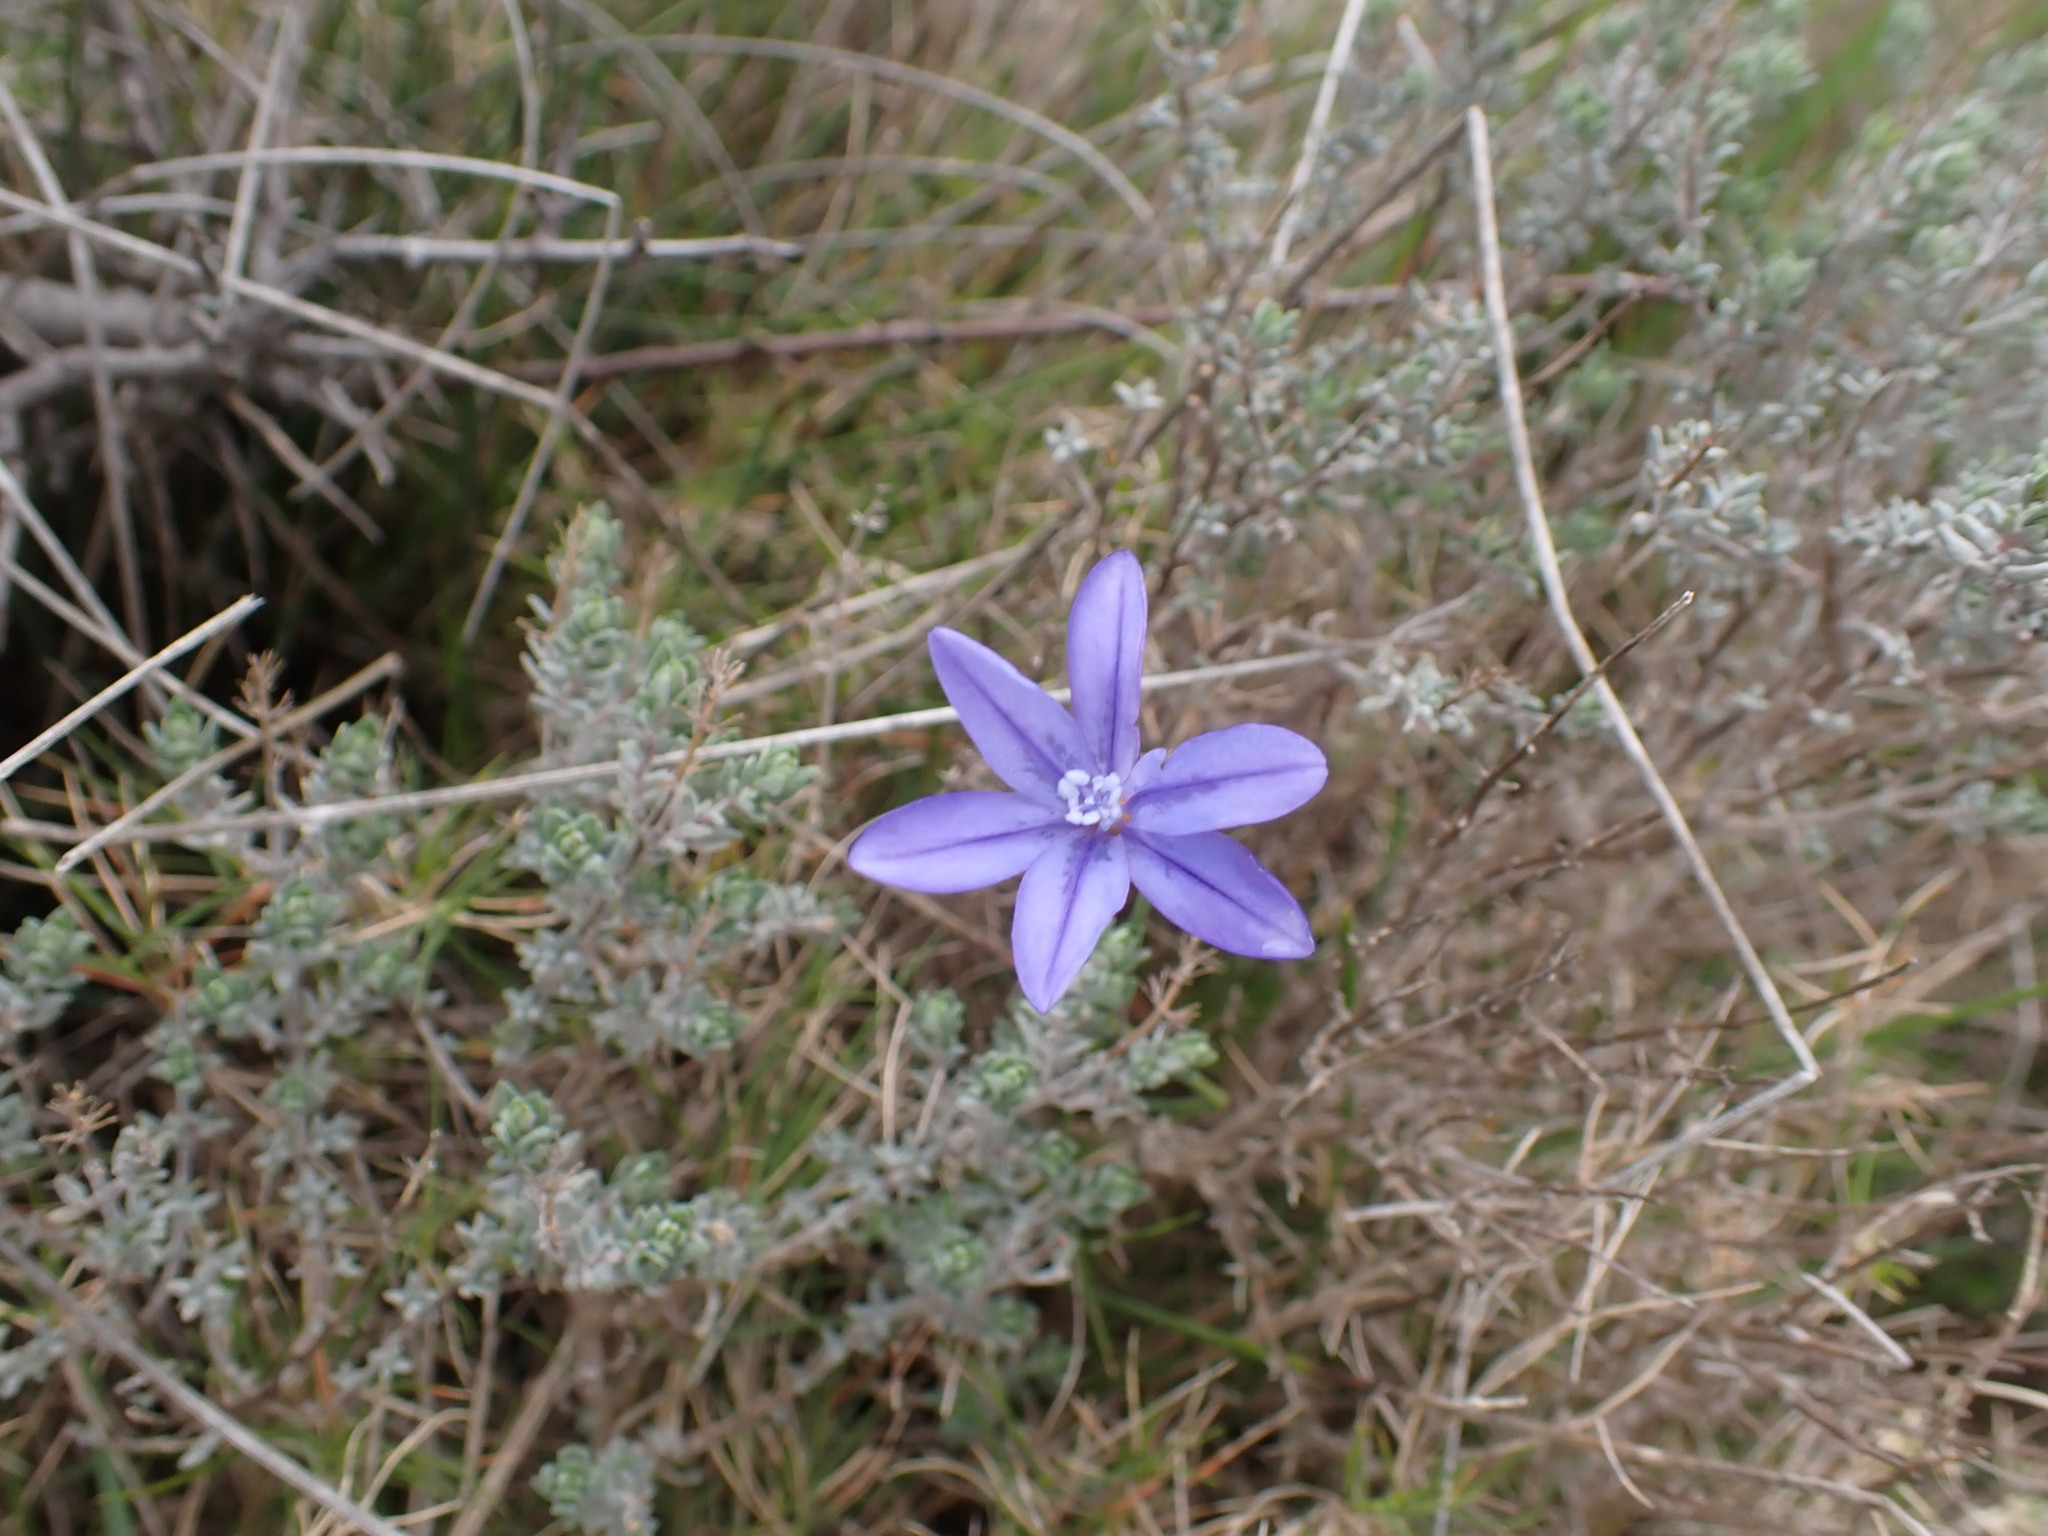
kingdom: Plantae
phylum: Tracheophyta
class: Liliopsida
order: Asparagales
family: Asparagaceae
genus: Aphyllanthes
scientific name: Aphyllanthes monspeliensis
